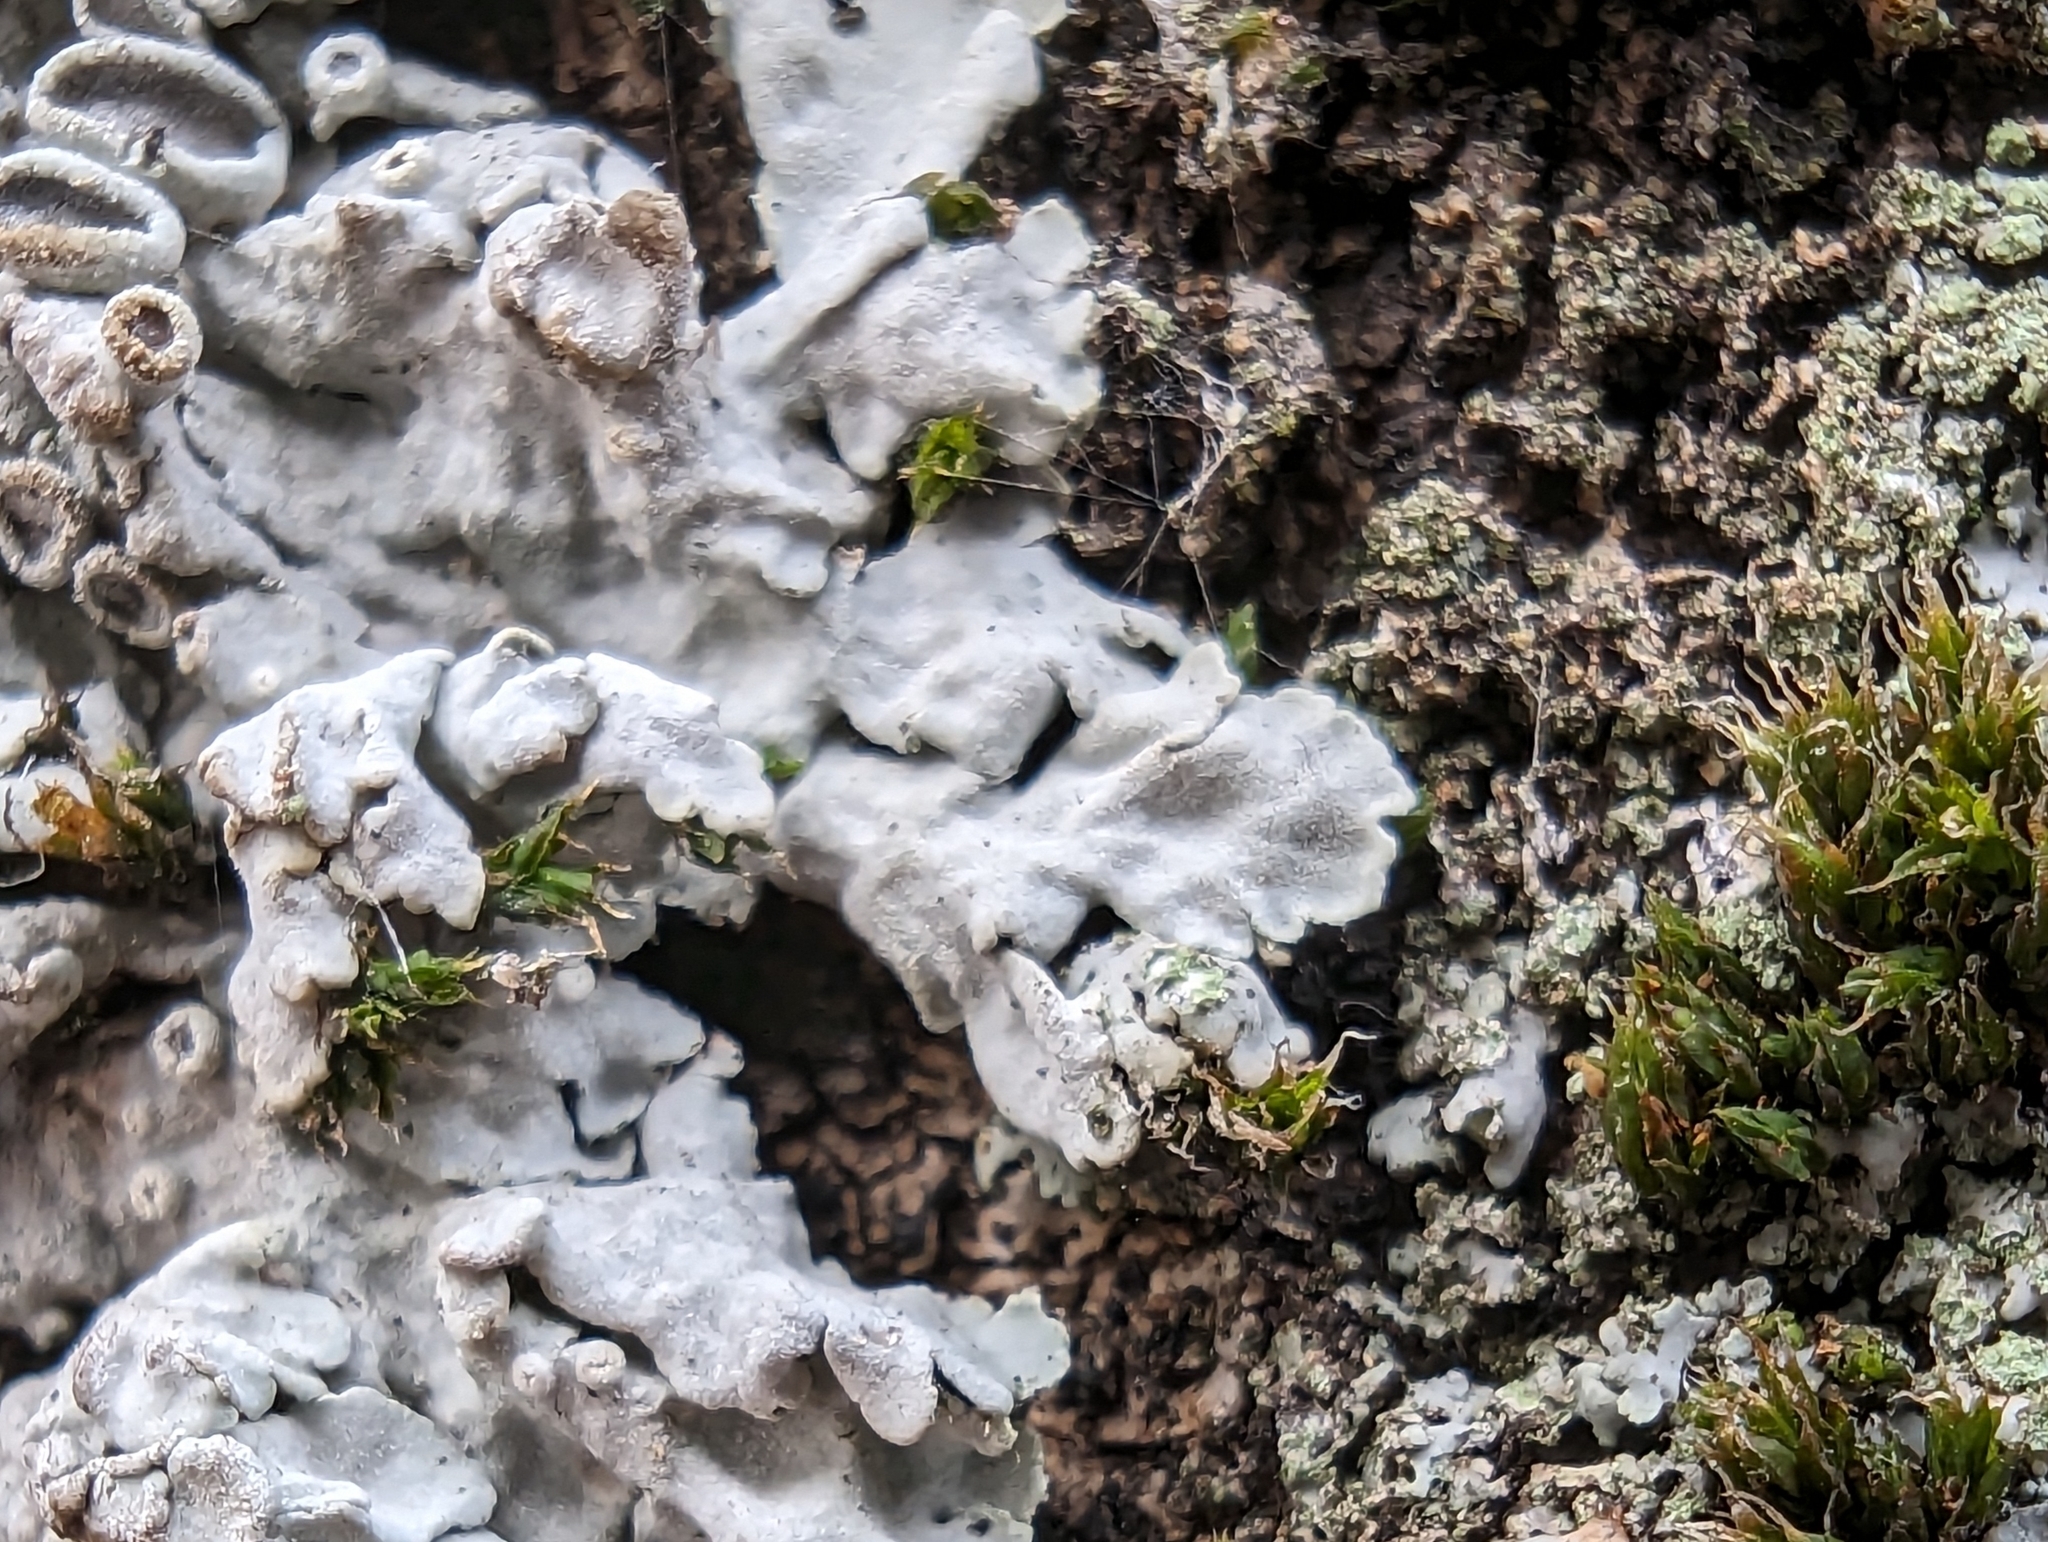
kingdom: Fungi
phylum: Ascomycota
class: Lecanoromycetes
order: Caliciales
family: Physciaceae
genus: Physconia
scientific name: Physconia distorta
